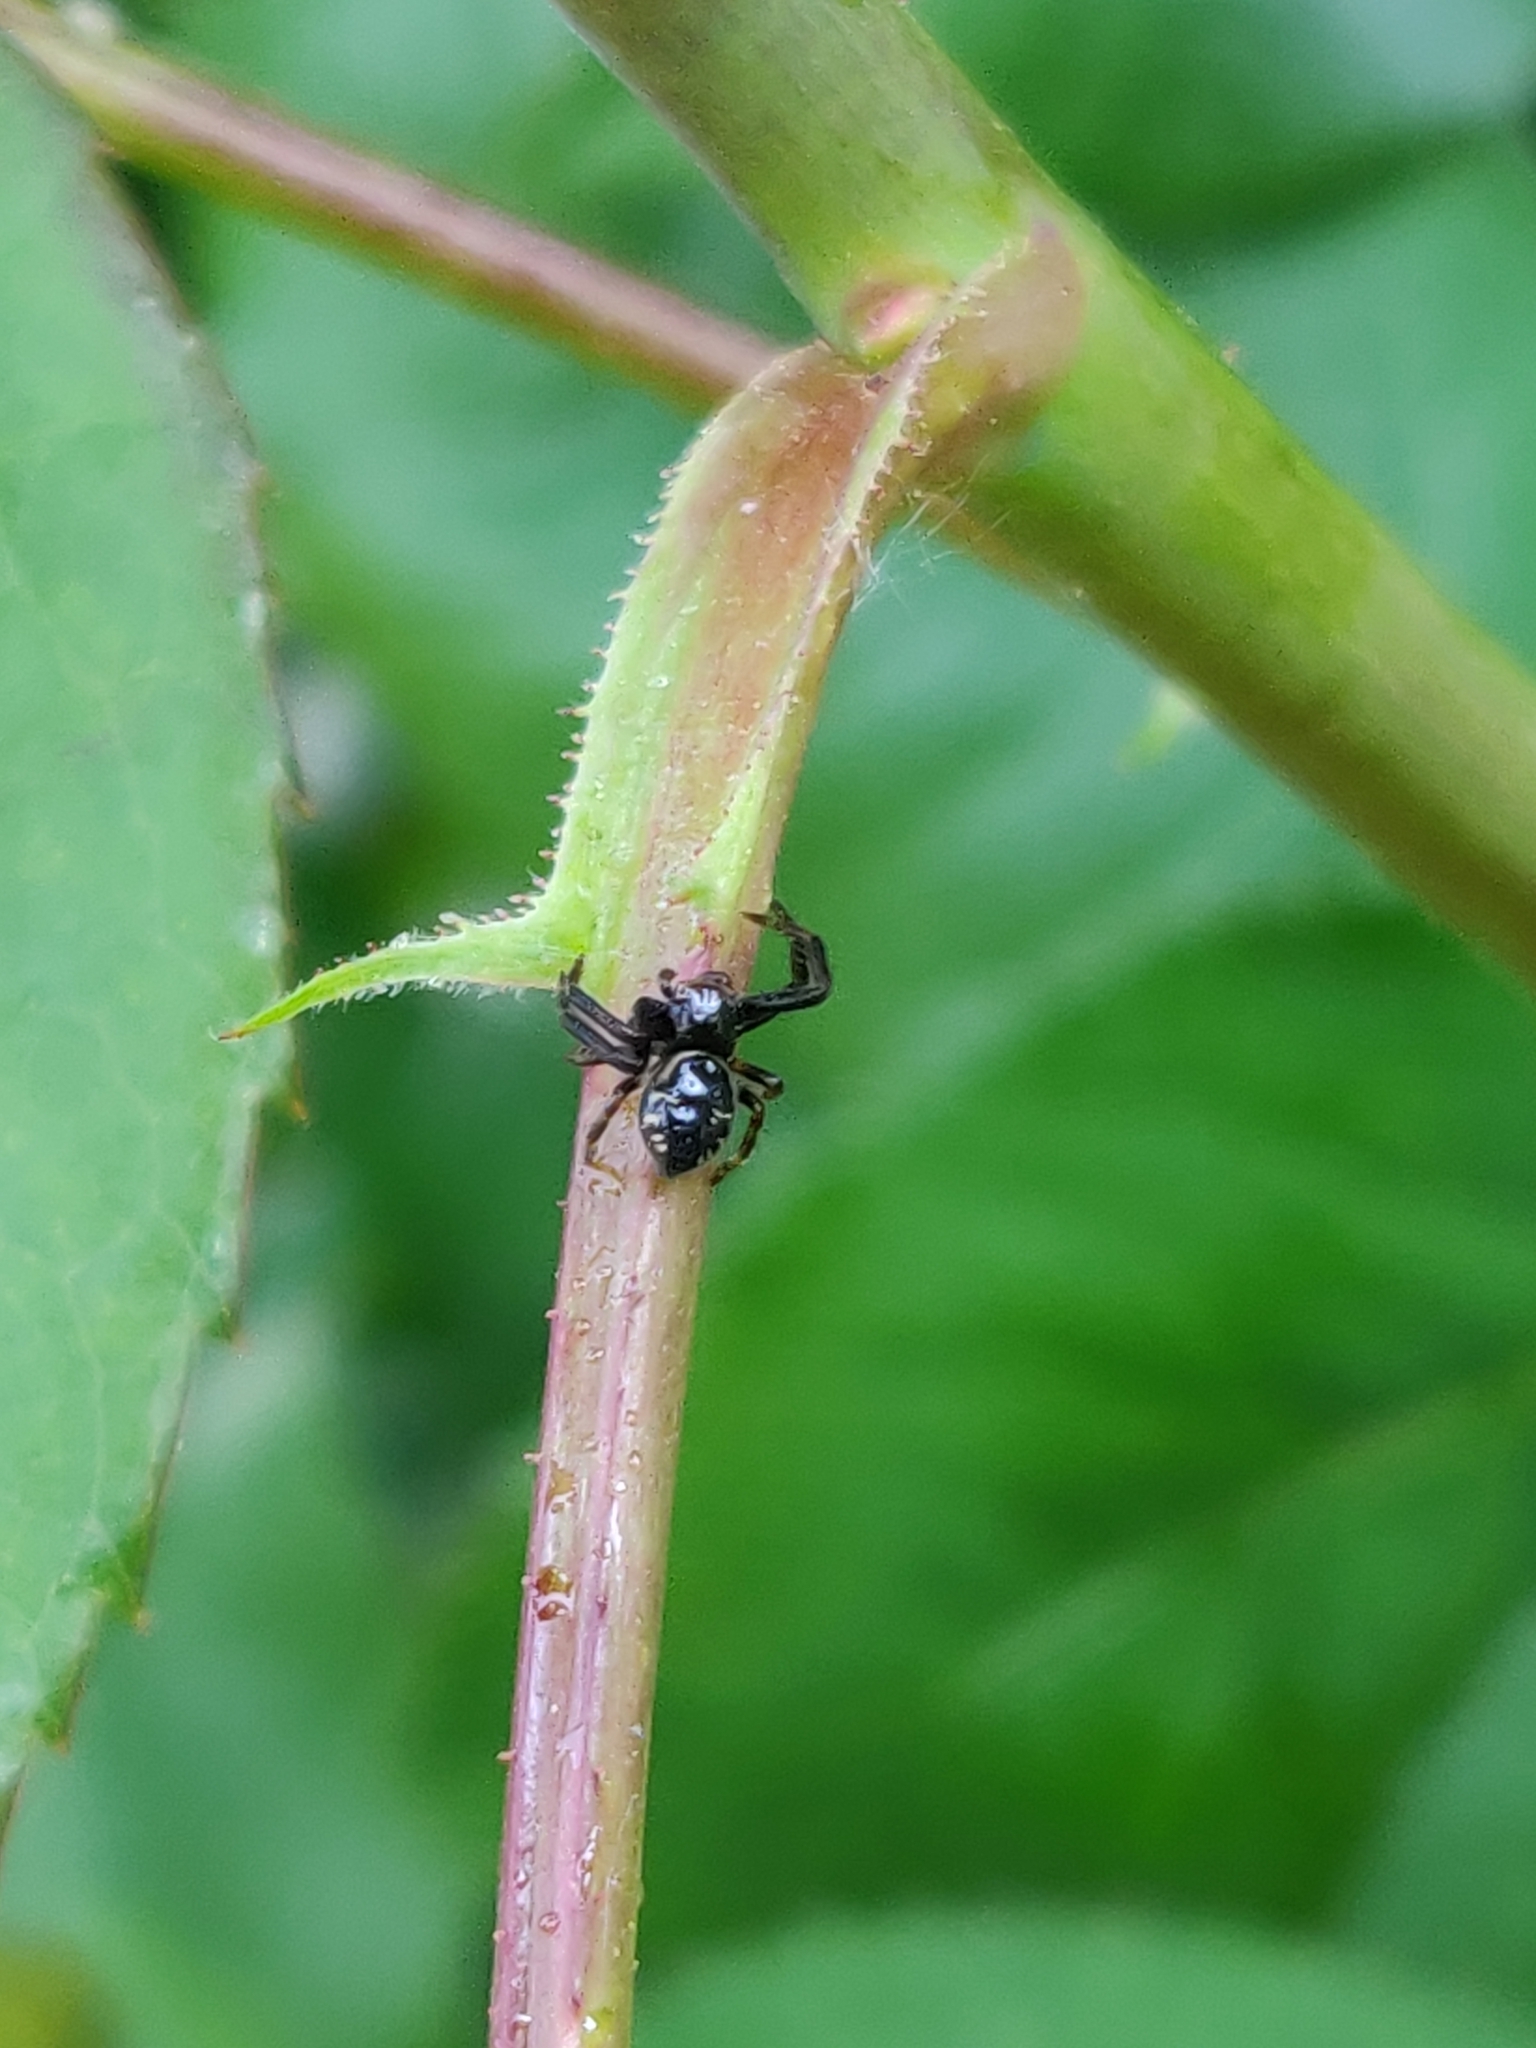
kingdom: Animalia
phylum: Arthropoda
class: Arachnida
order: Araneae
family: Thomisidae
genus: Synema
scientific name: Synema globosum
